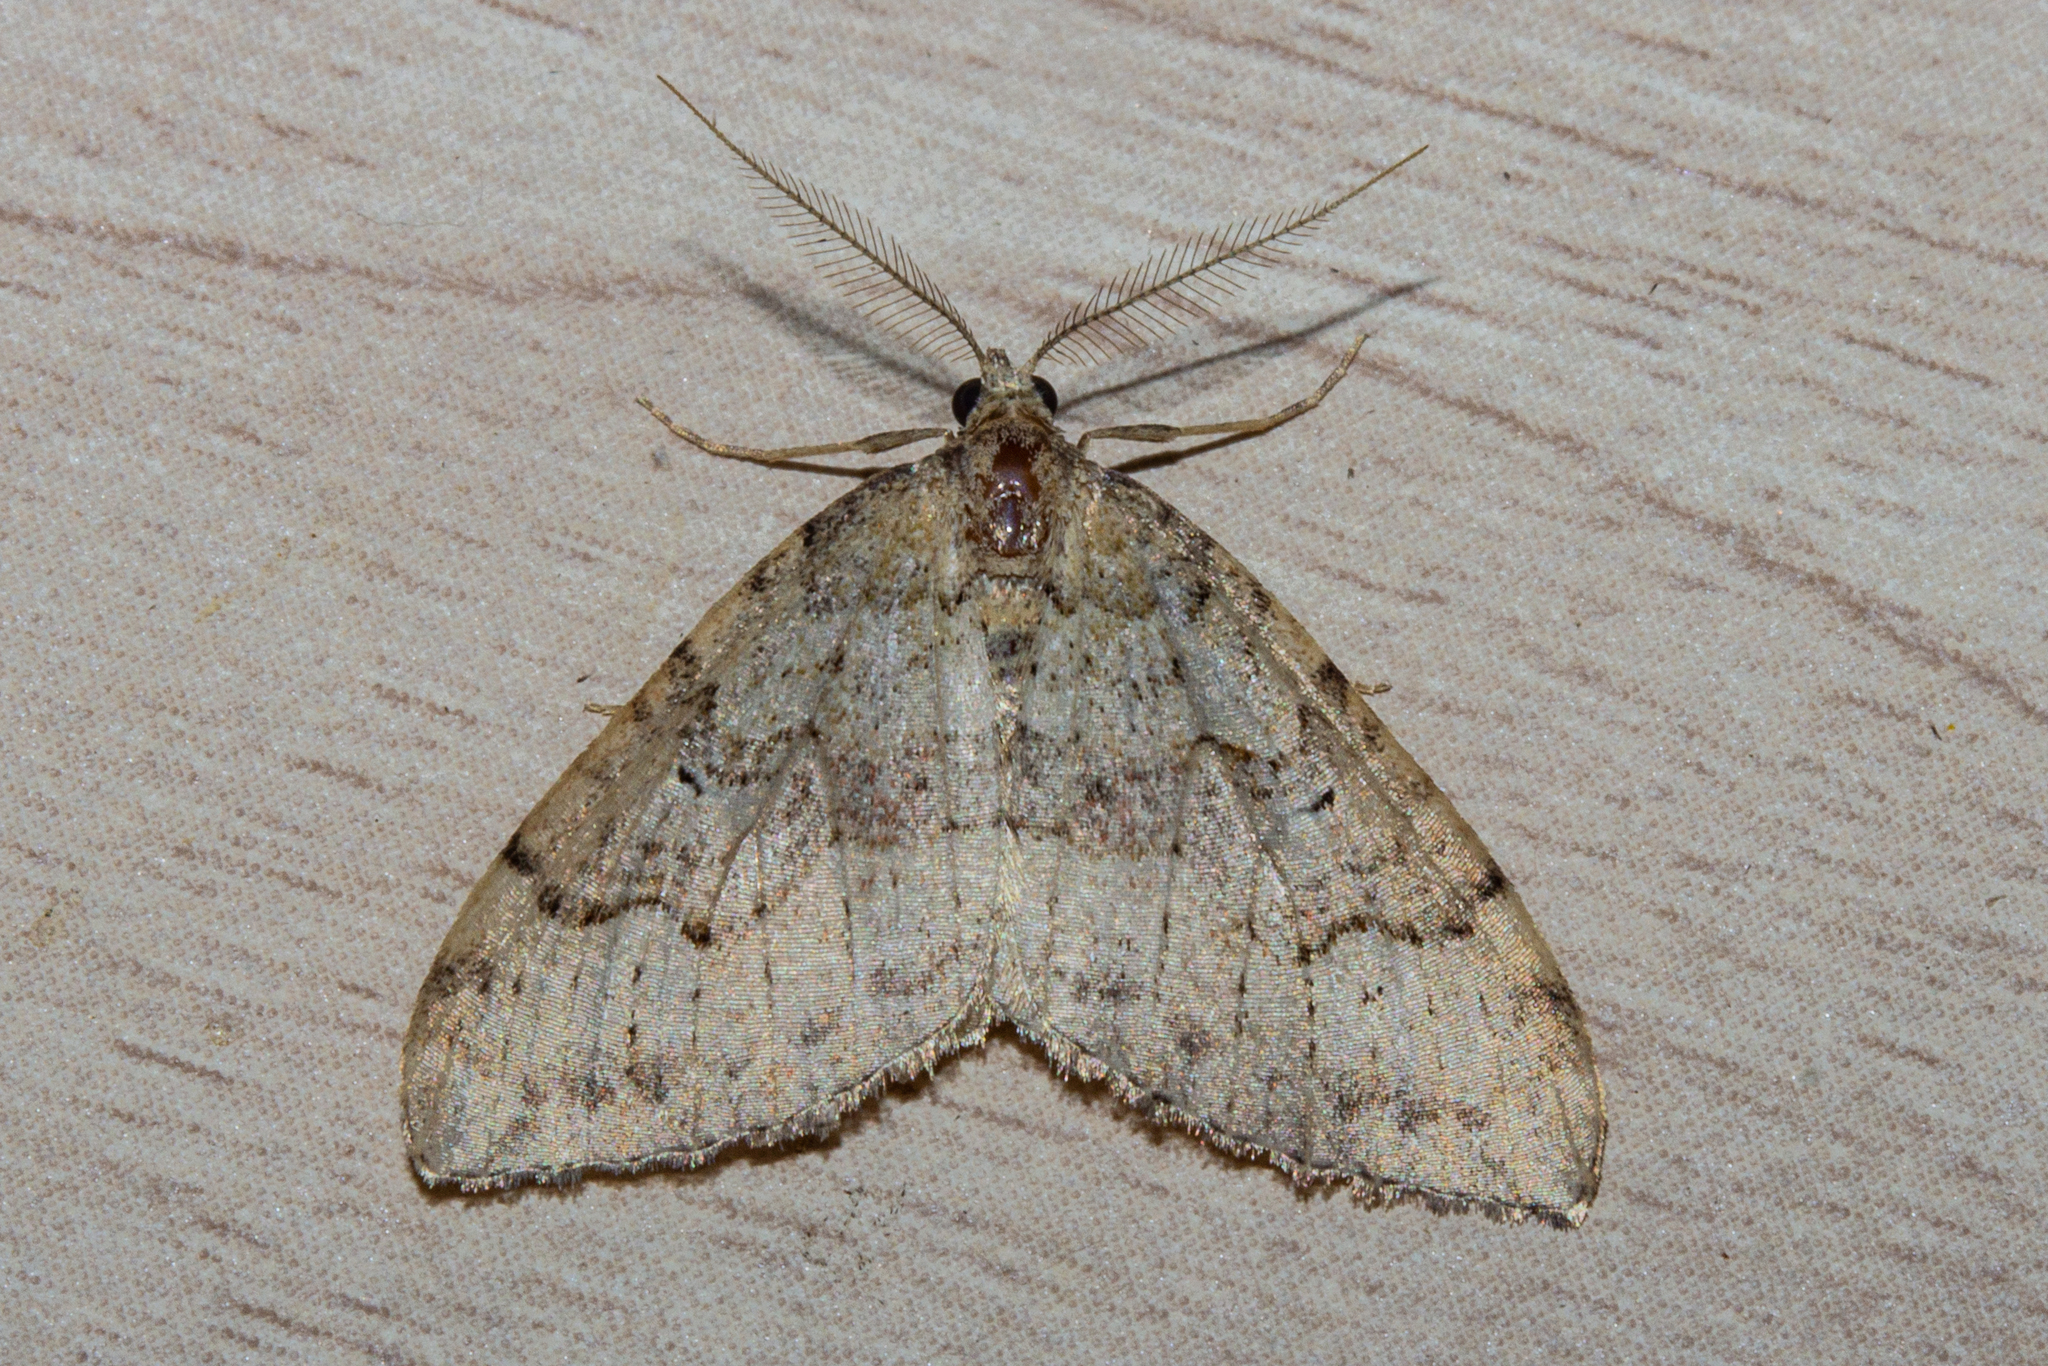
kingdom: Animalia
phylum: Arthropoda
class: Insecta
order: Lepidoptera
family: Geometridae
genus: Epyaxa
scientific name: Epyaxa rosearia
